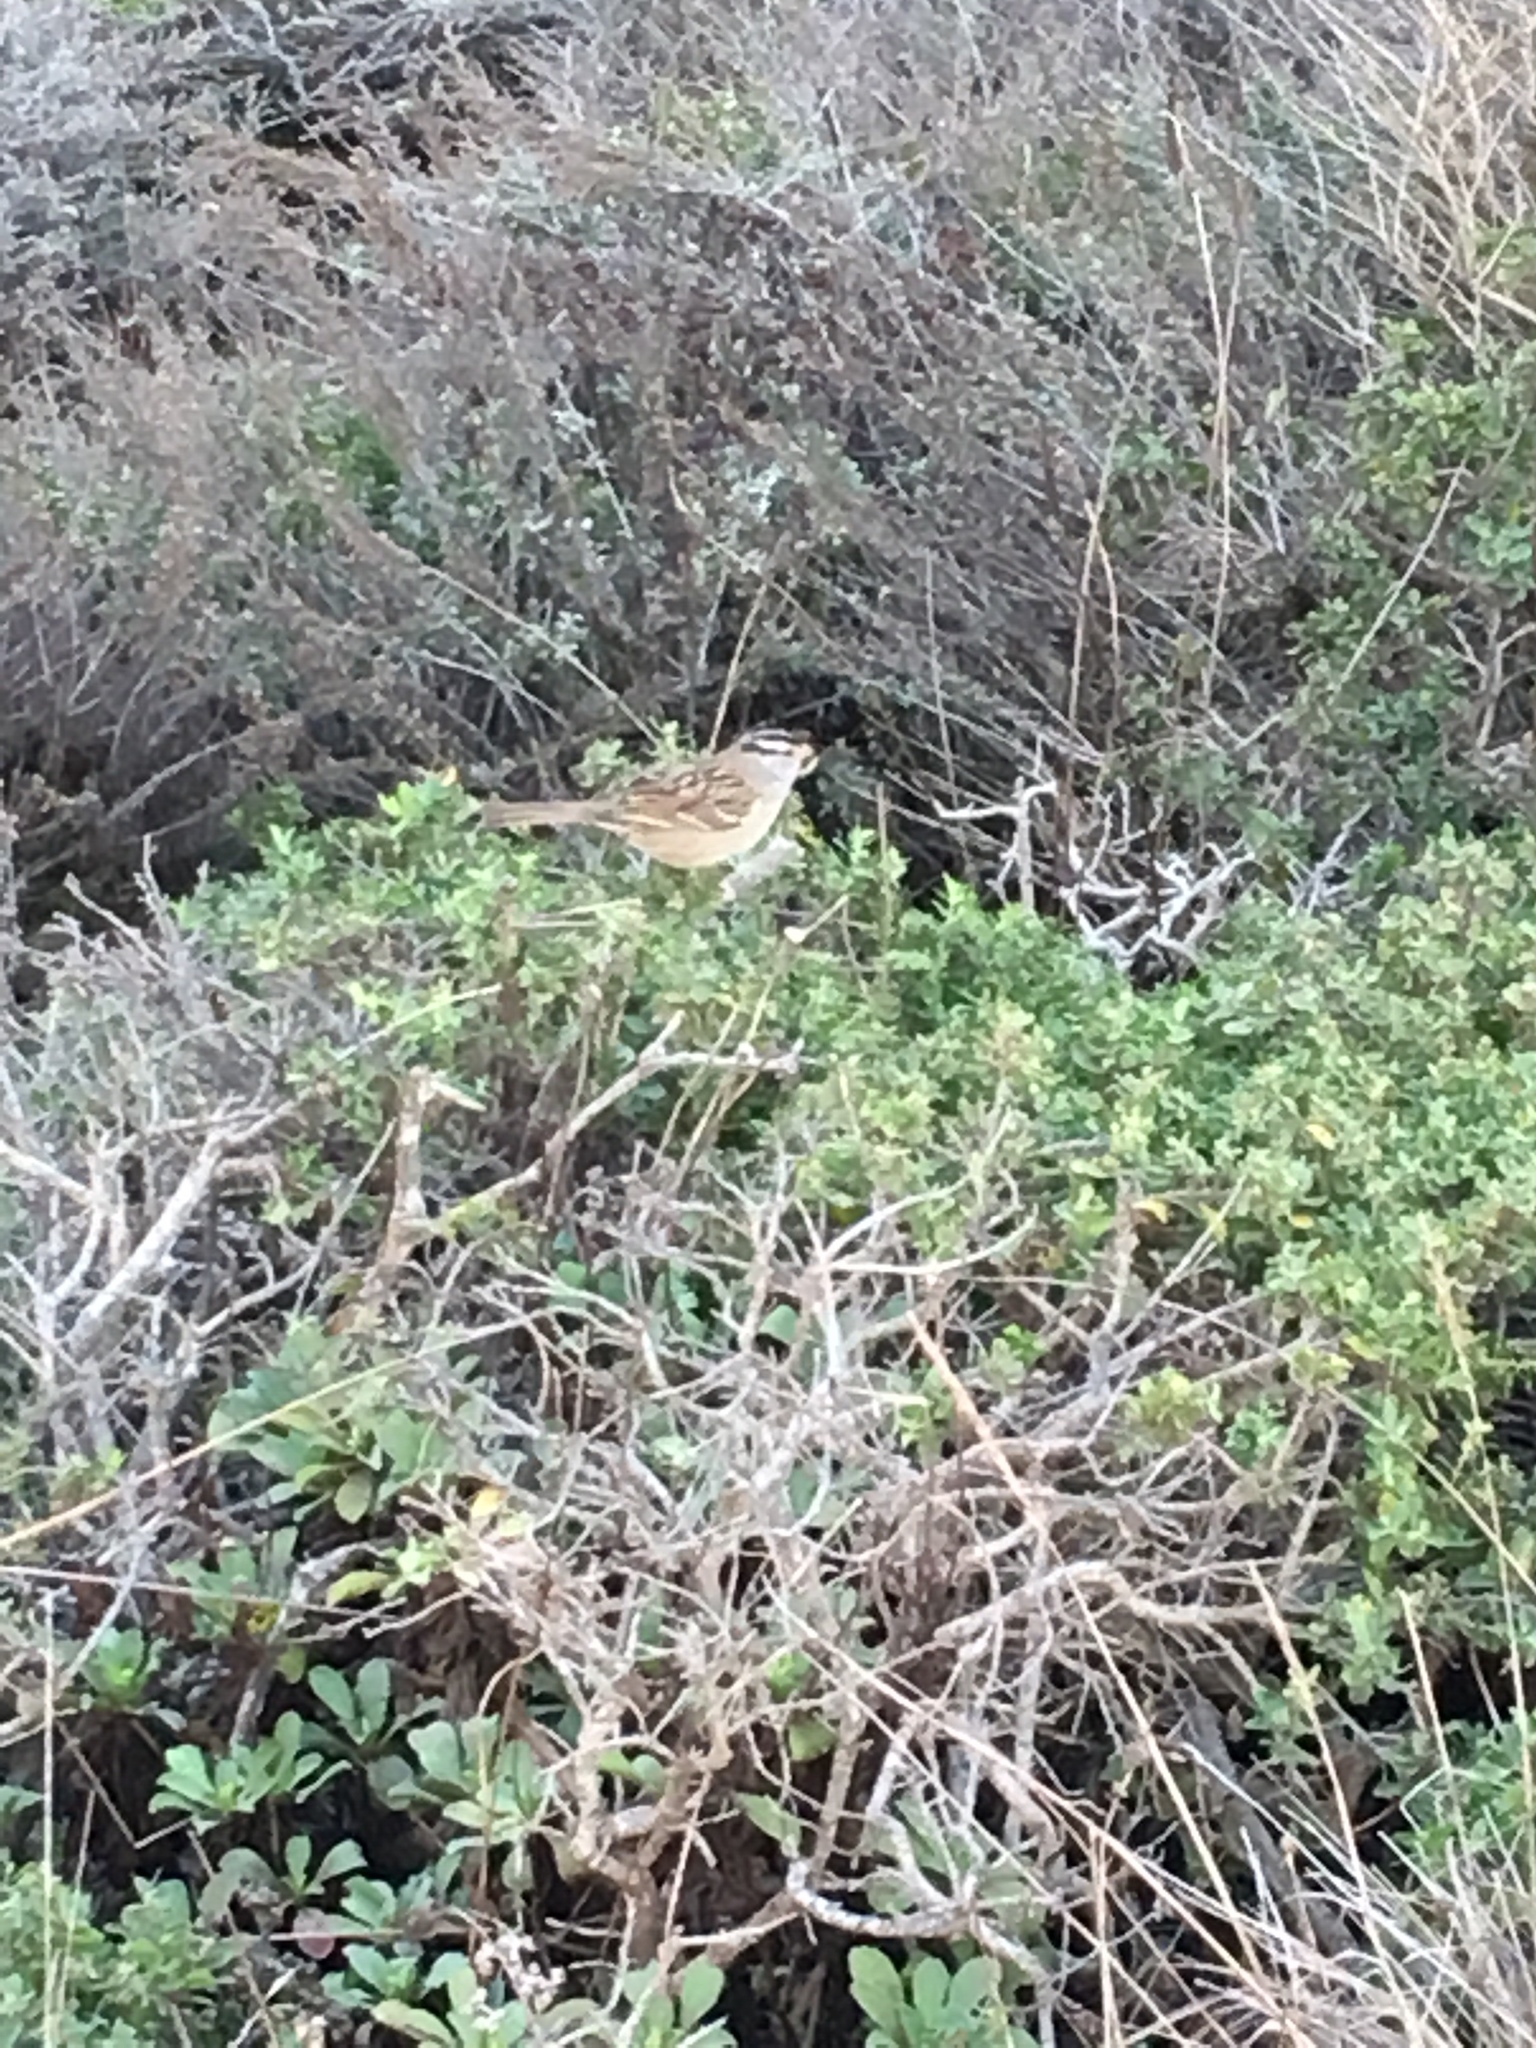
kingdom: Animalia
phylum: Chordata
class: Aves
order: Passeriformes
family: Passerellidae
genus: Zonotrichia
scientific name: Zonotrichia leucophrys
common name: White-crowned sparrow
